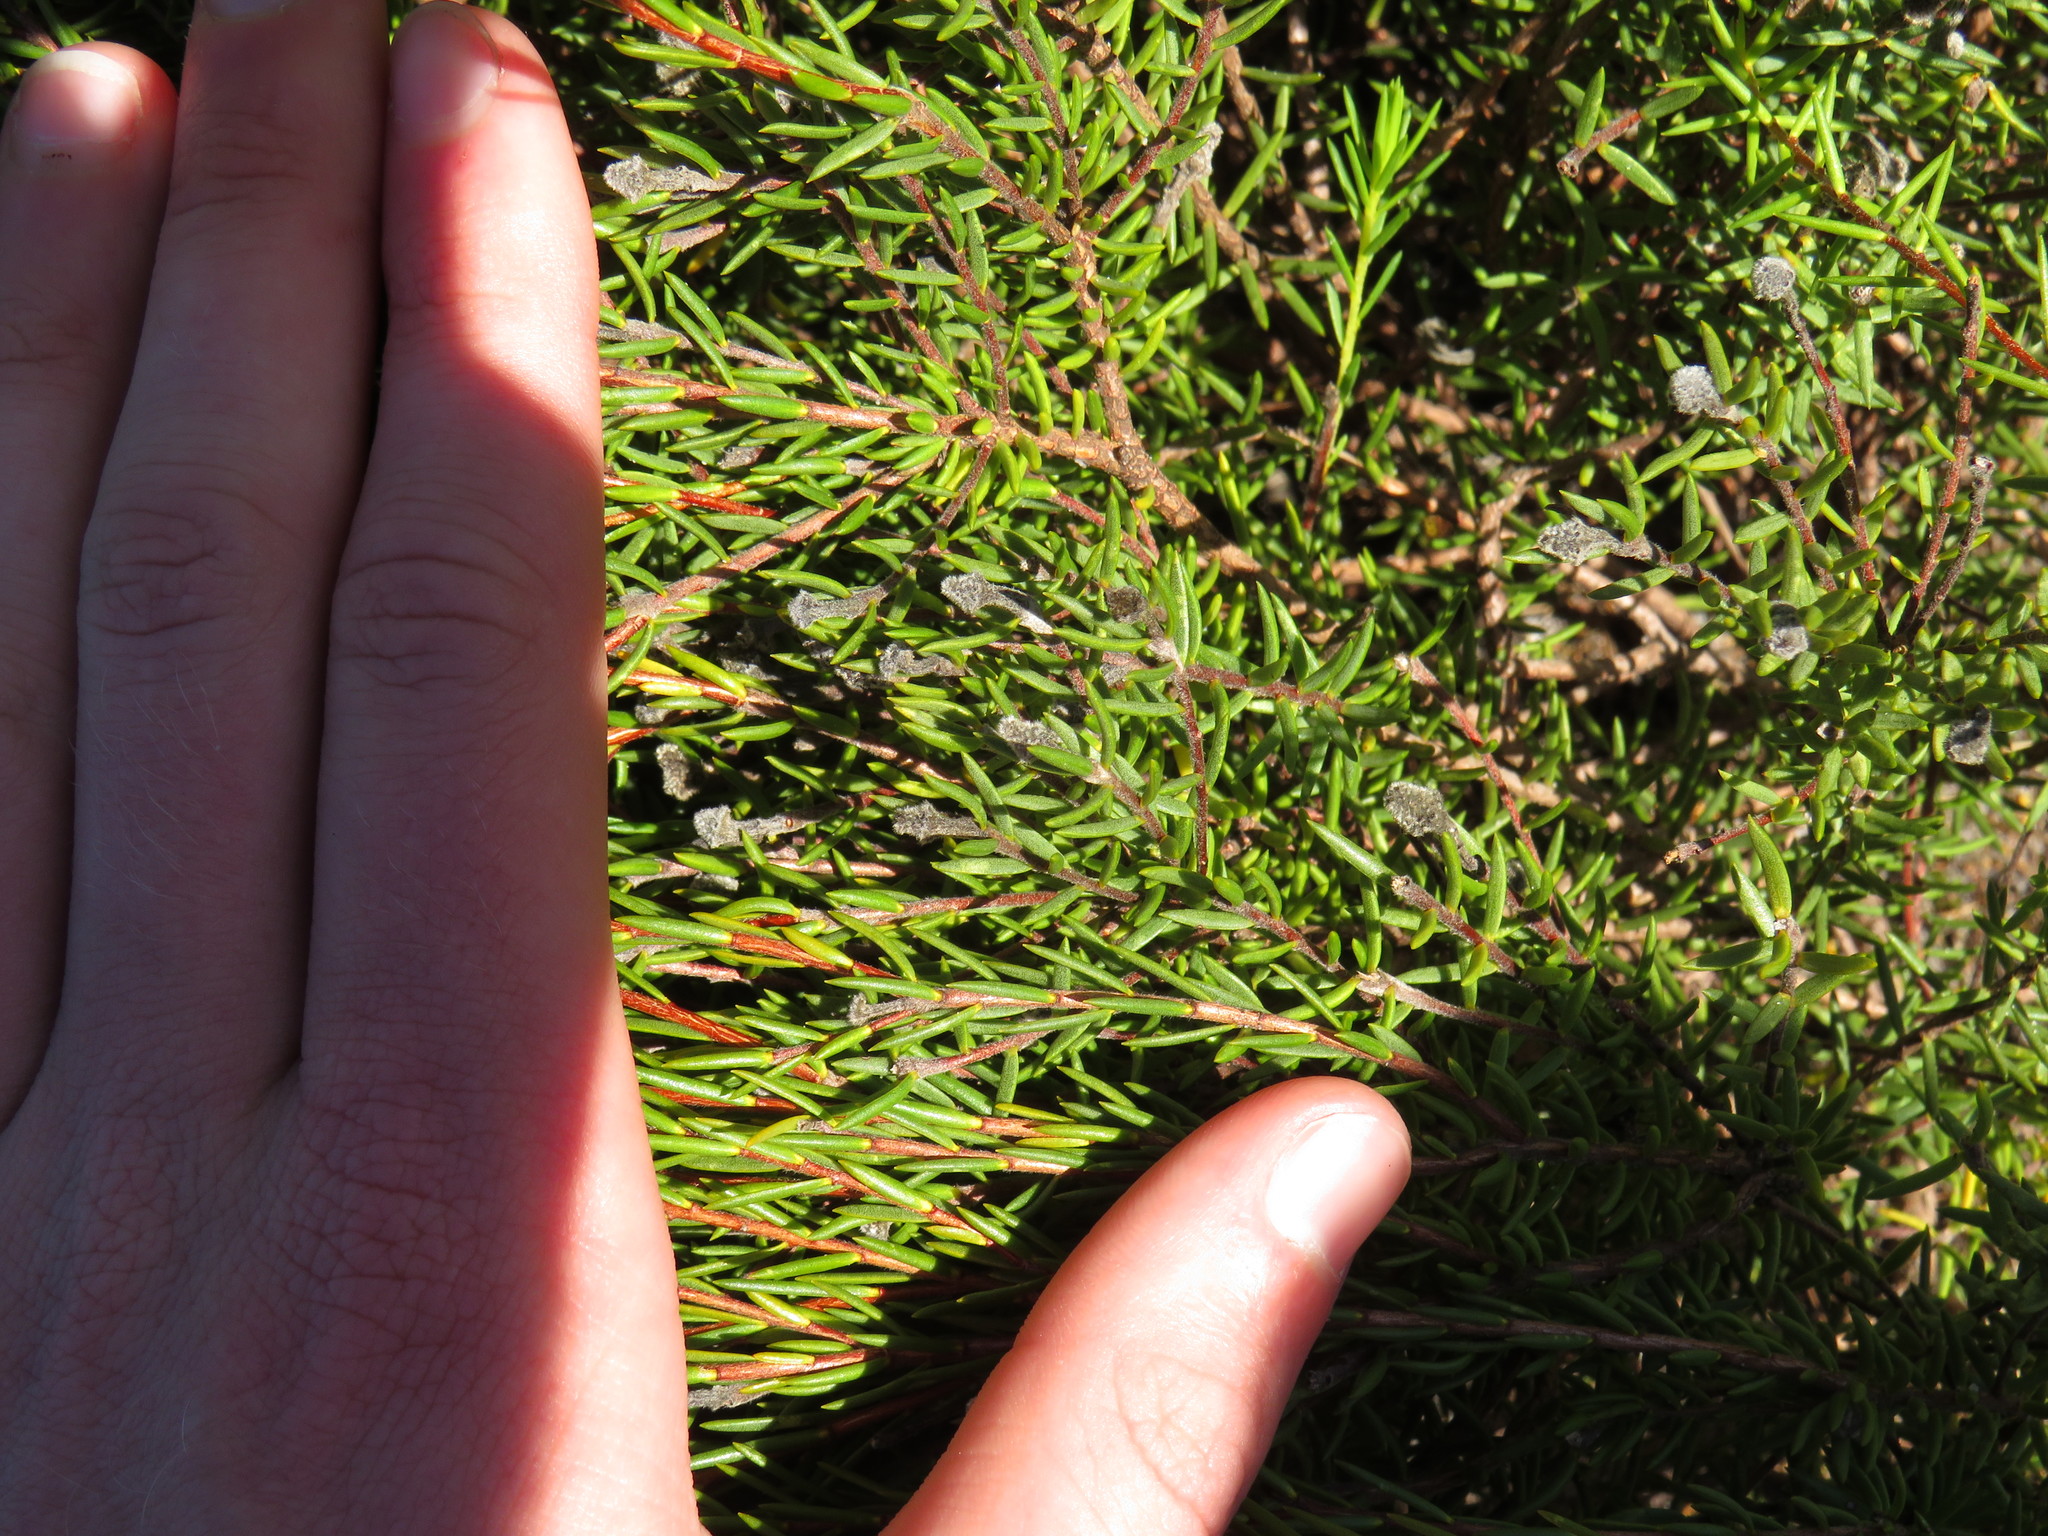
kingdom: Plantae
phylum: Tracheophyta
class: Magnoliopsida
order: Malvales
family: Thymelaeaceae
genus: Lachnaea
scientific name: Lachnaea densiflora
